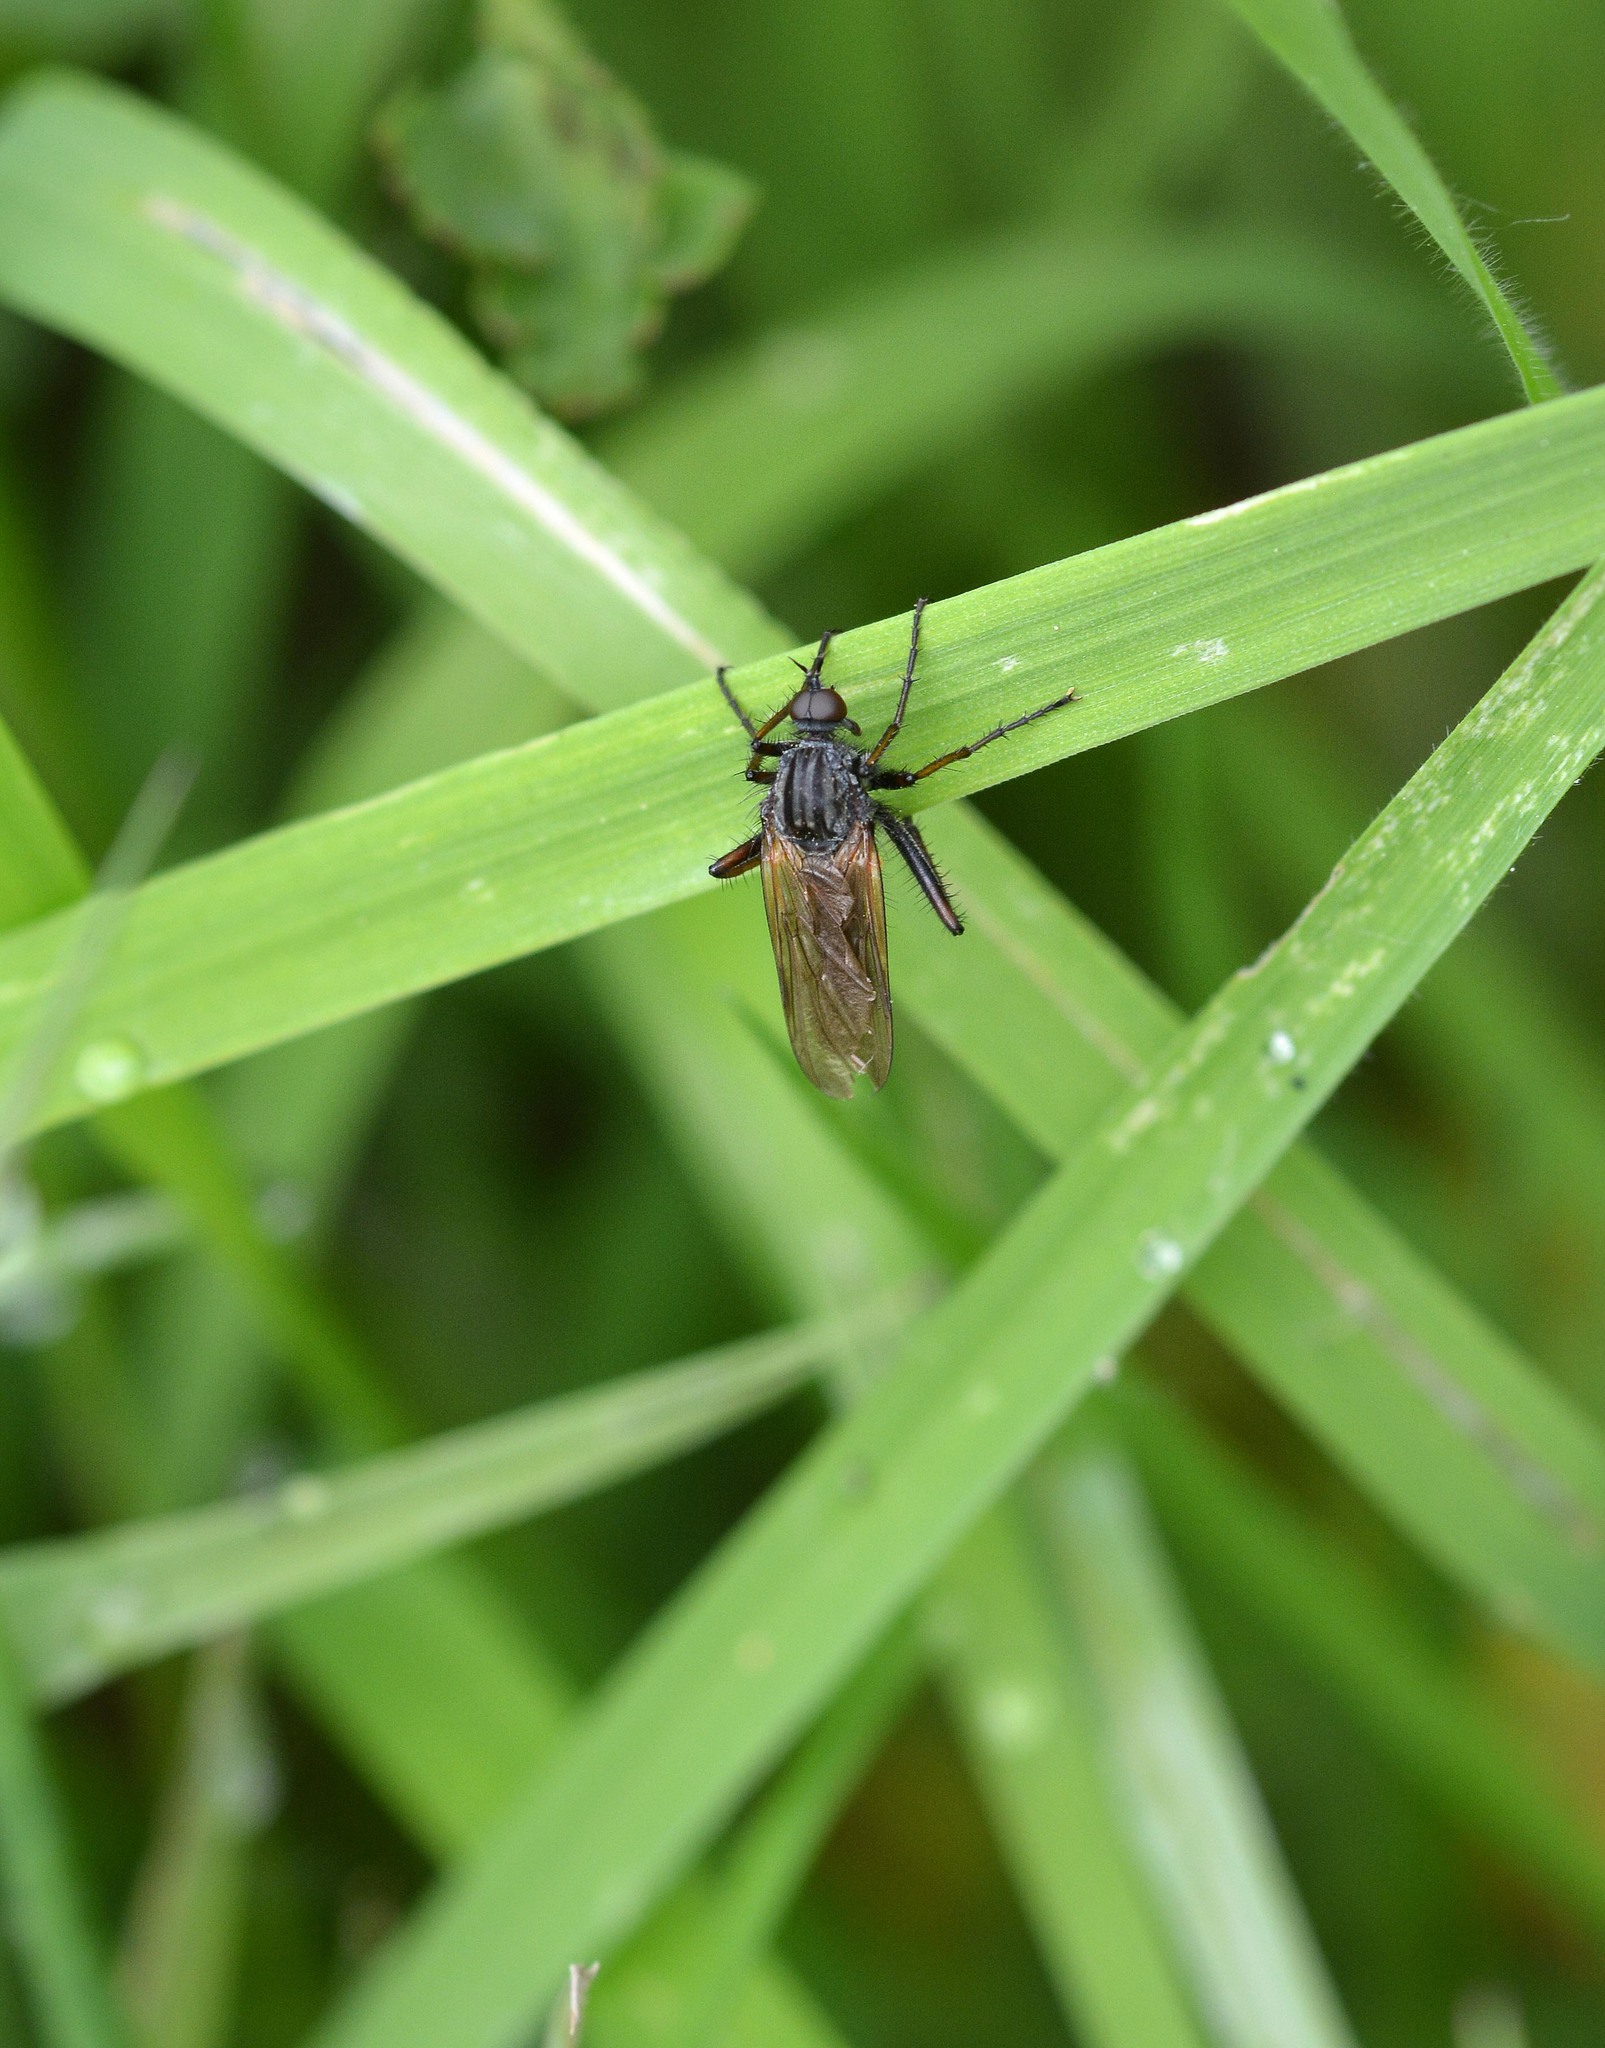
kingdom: Animalia
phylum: Arthropoda
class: Insecta
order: Diptera
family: Empididae
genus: Empis
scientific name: Empis tessellata
